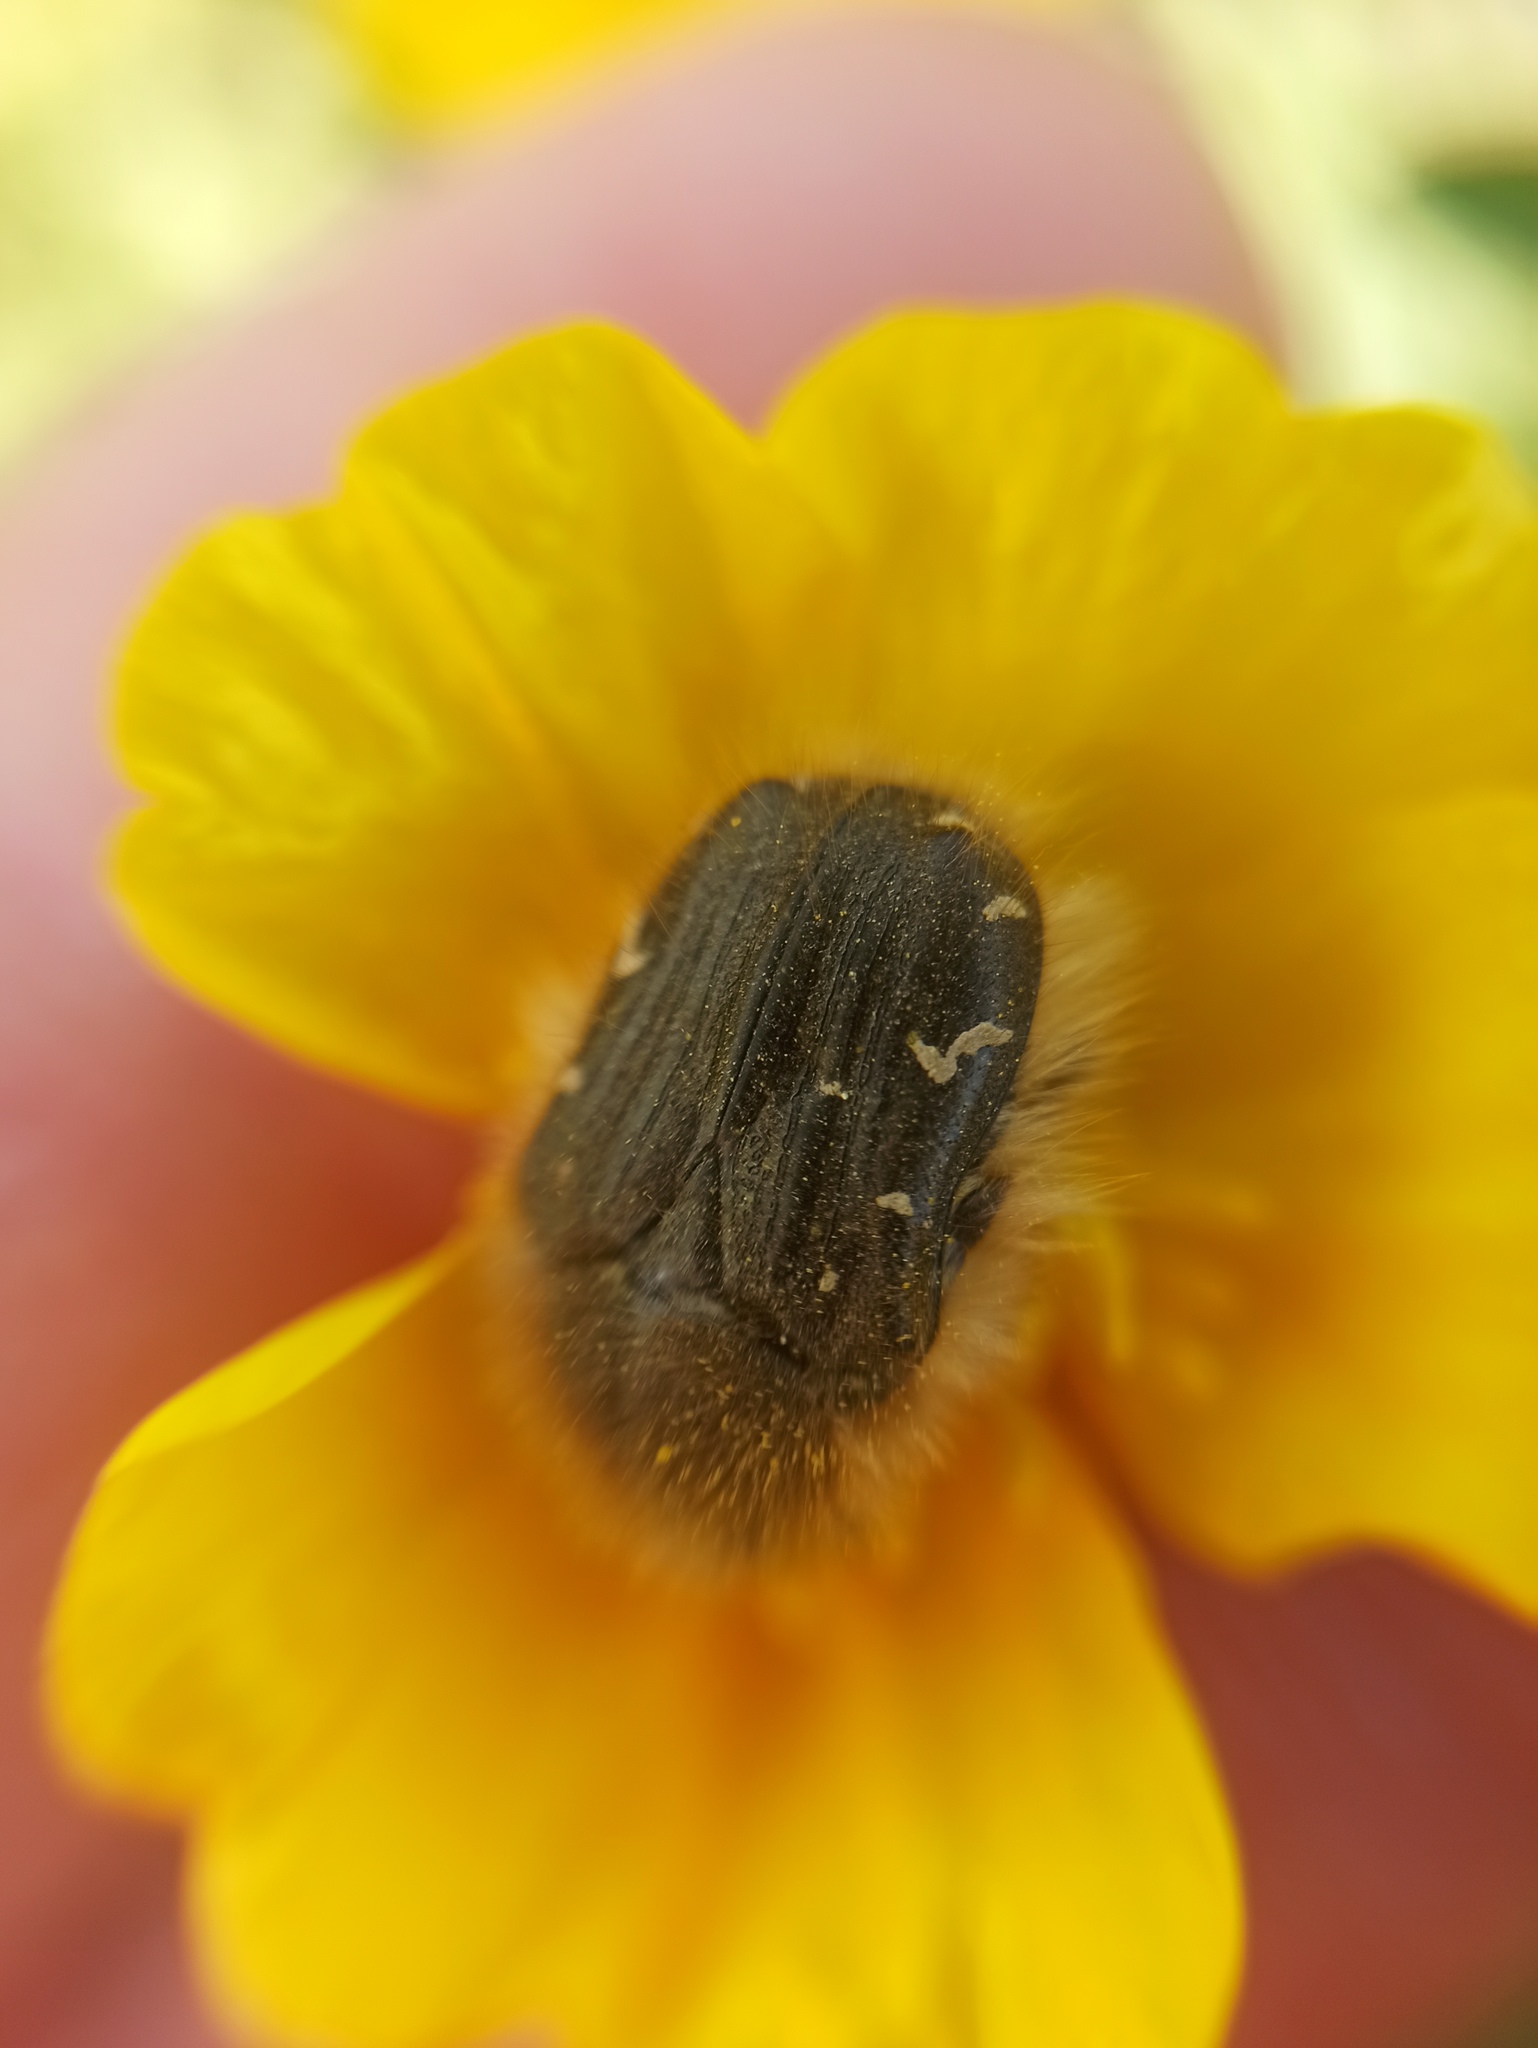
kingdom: Animalia
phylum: Arthropoda
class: Insecta
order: Coleoptera
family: Scarabaeidae
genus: Tropinota
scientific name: Tropinota hirta
